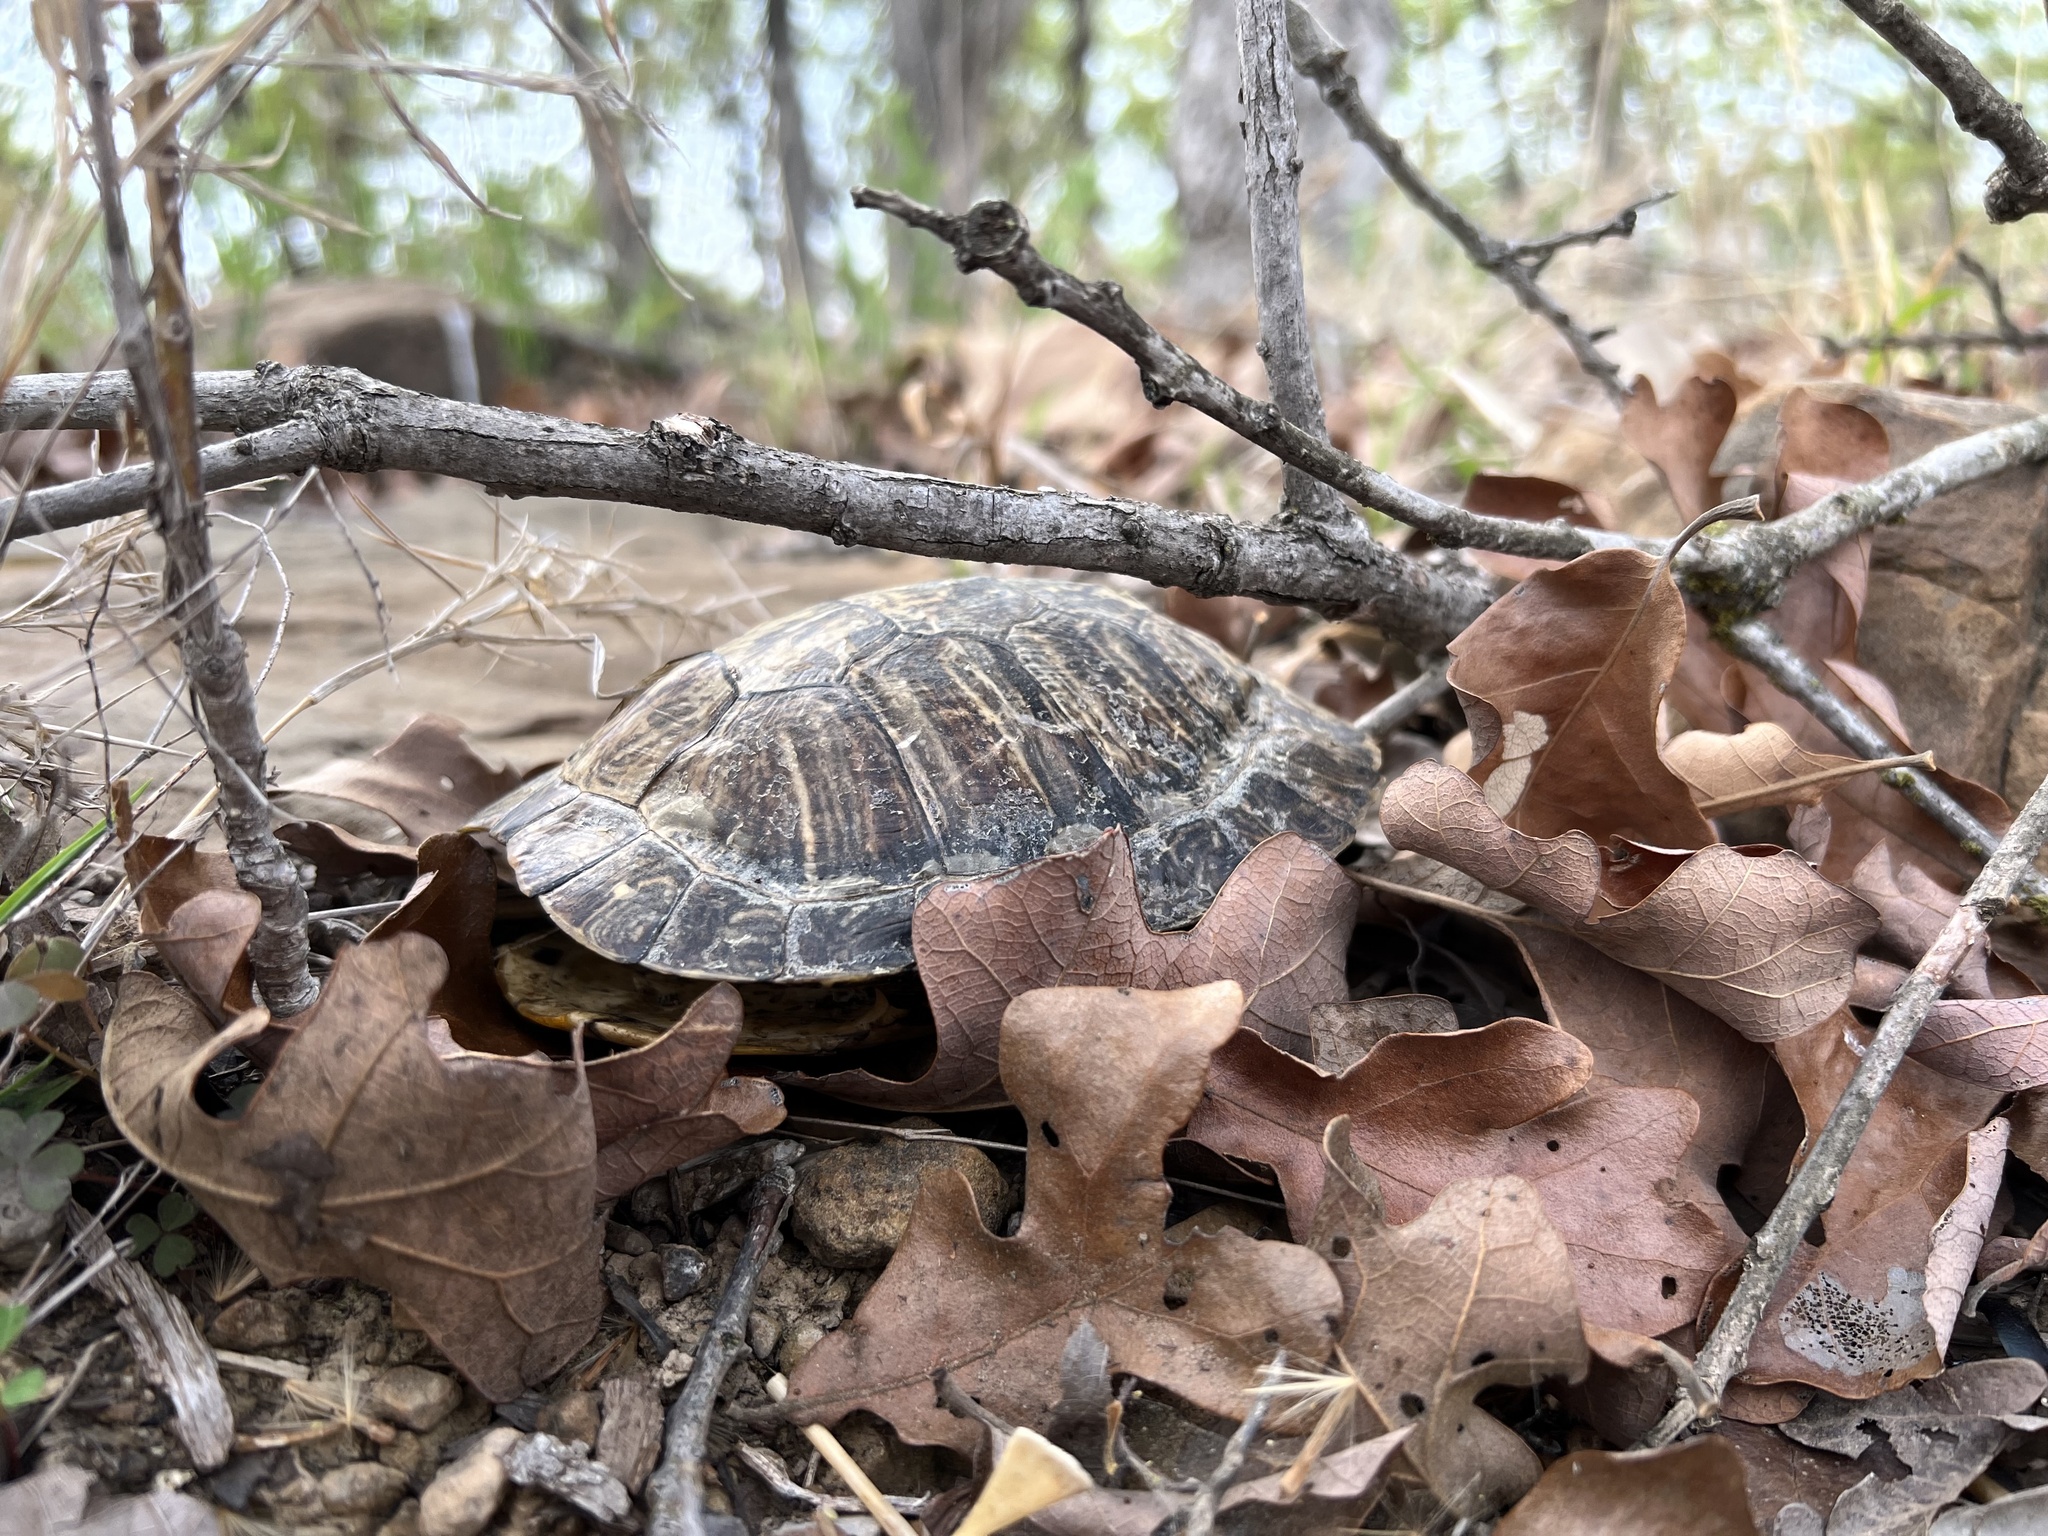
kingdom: Animalia
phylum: Chordata
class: Testudines
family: Emydidae
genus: Trachemys
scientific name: Trachemys scripta
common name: Slider
